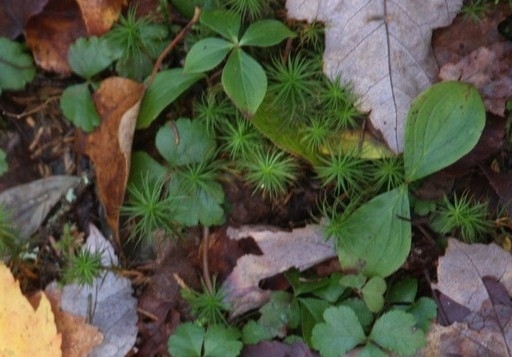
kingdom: Plantae
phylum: Tracheophyta
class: Magnoliopsida
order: Cornales
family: Cornaceae
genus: Cornus
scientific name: Cornus canadensis
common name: Creeping dogwood
